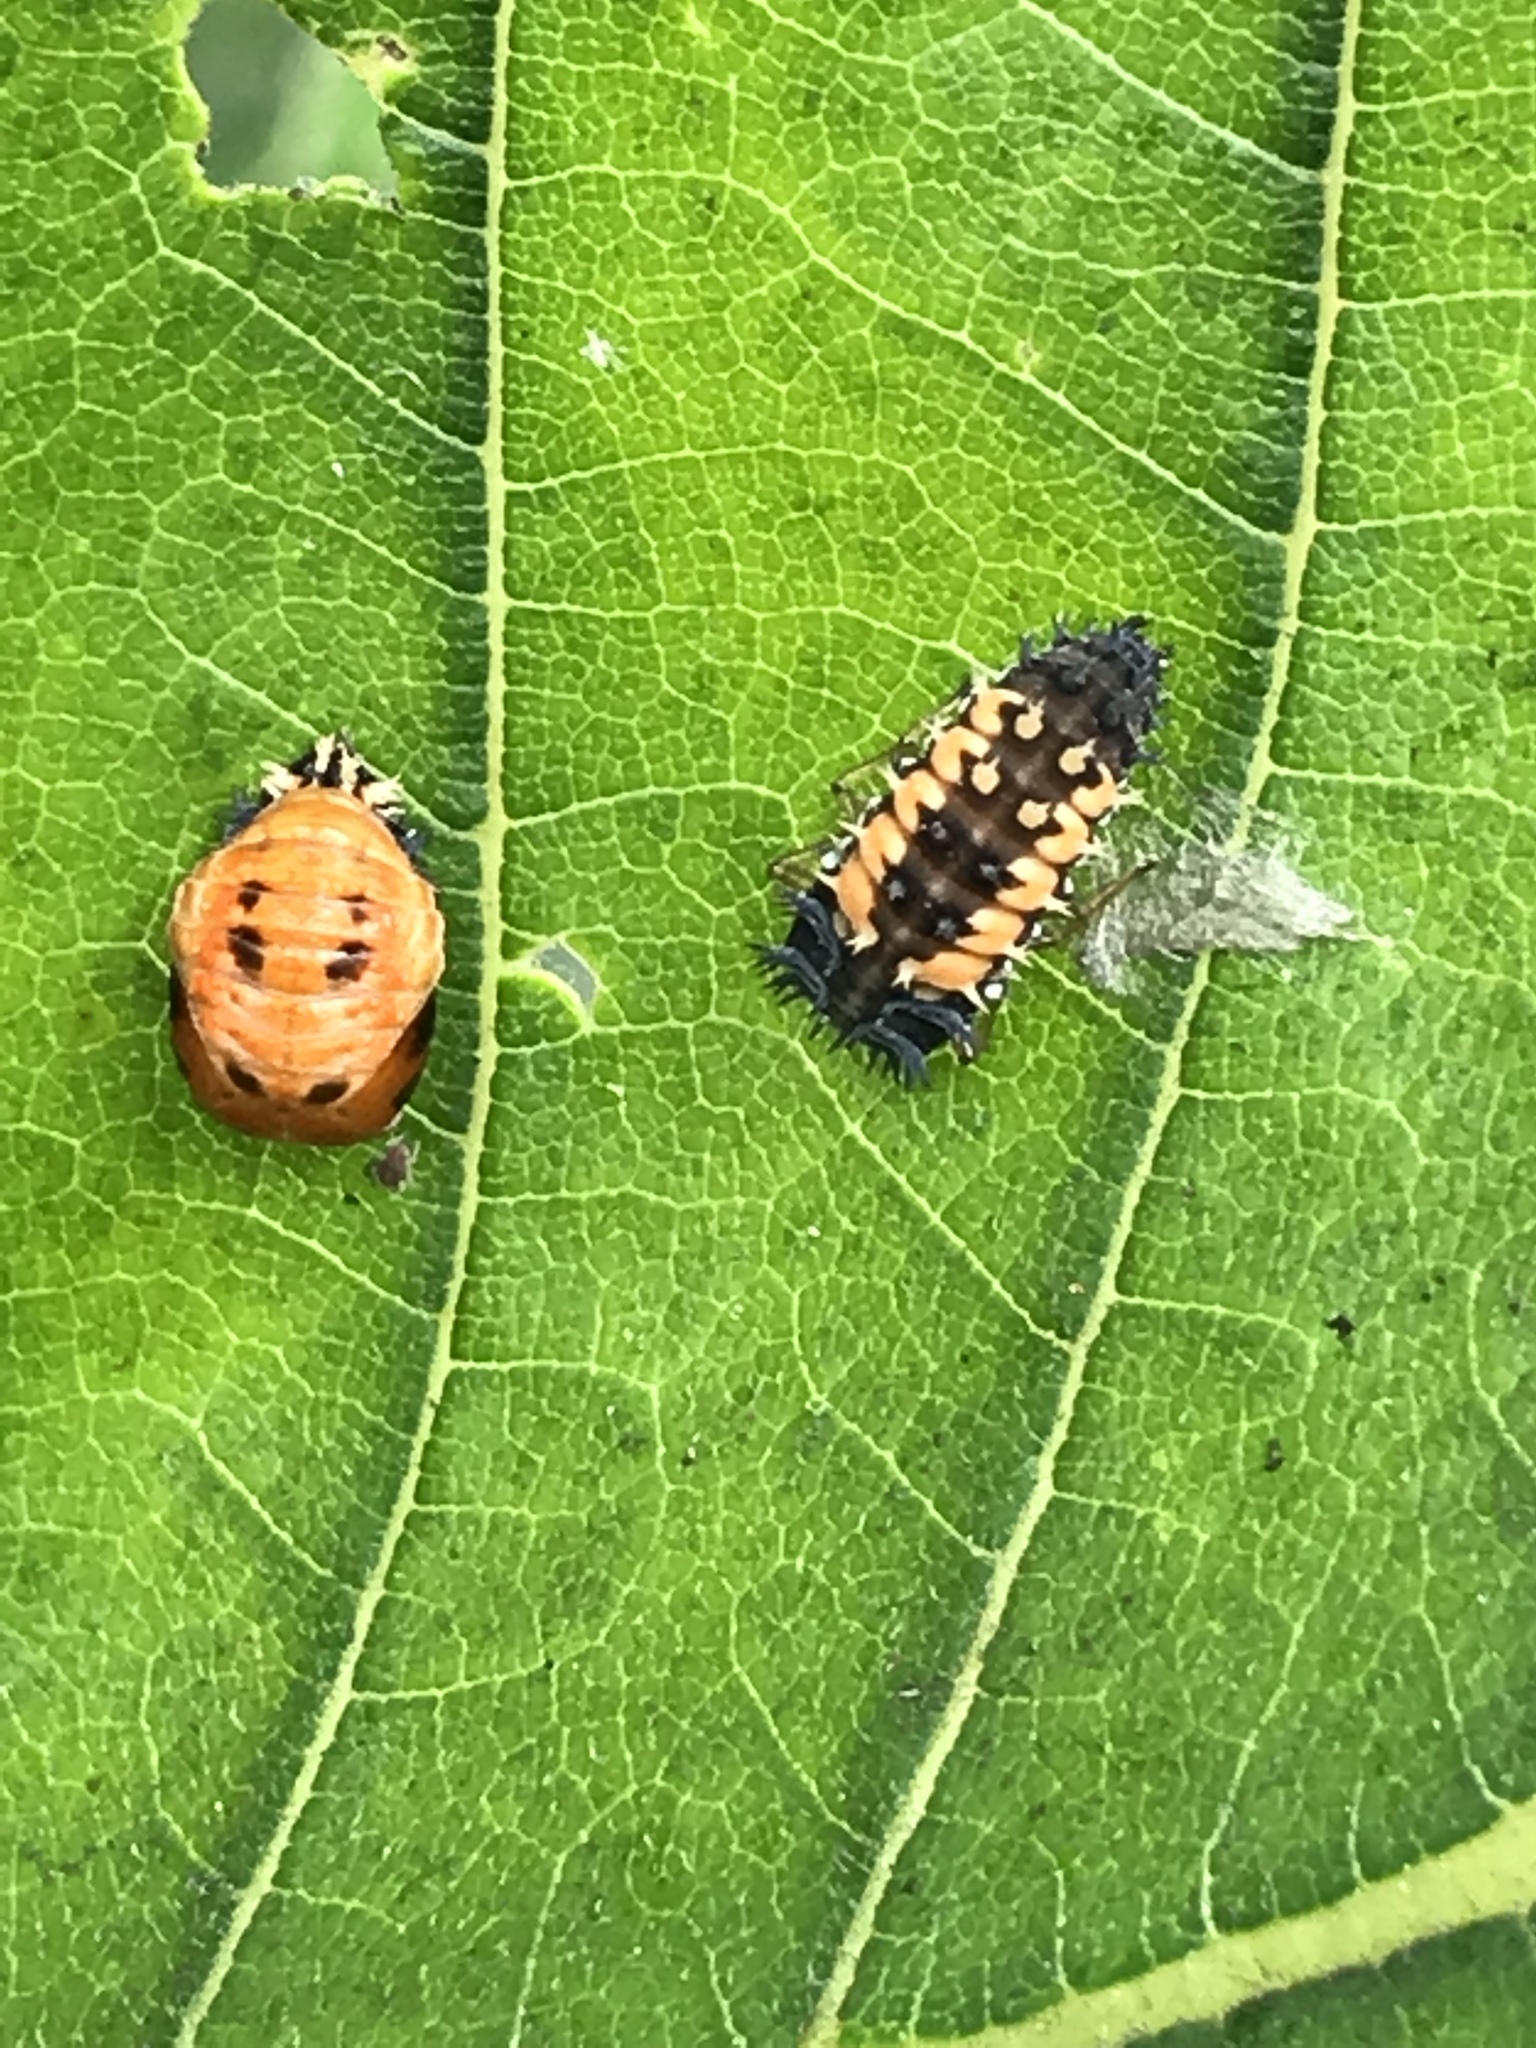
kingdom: Animalia
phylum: Arthropoda
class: Insecta
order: Coleoptera
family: Coccinellidae
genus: Harmonia
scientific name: Harmonia axyridis
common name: Harlequin ladybird
